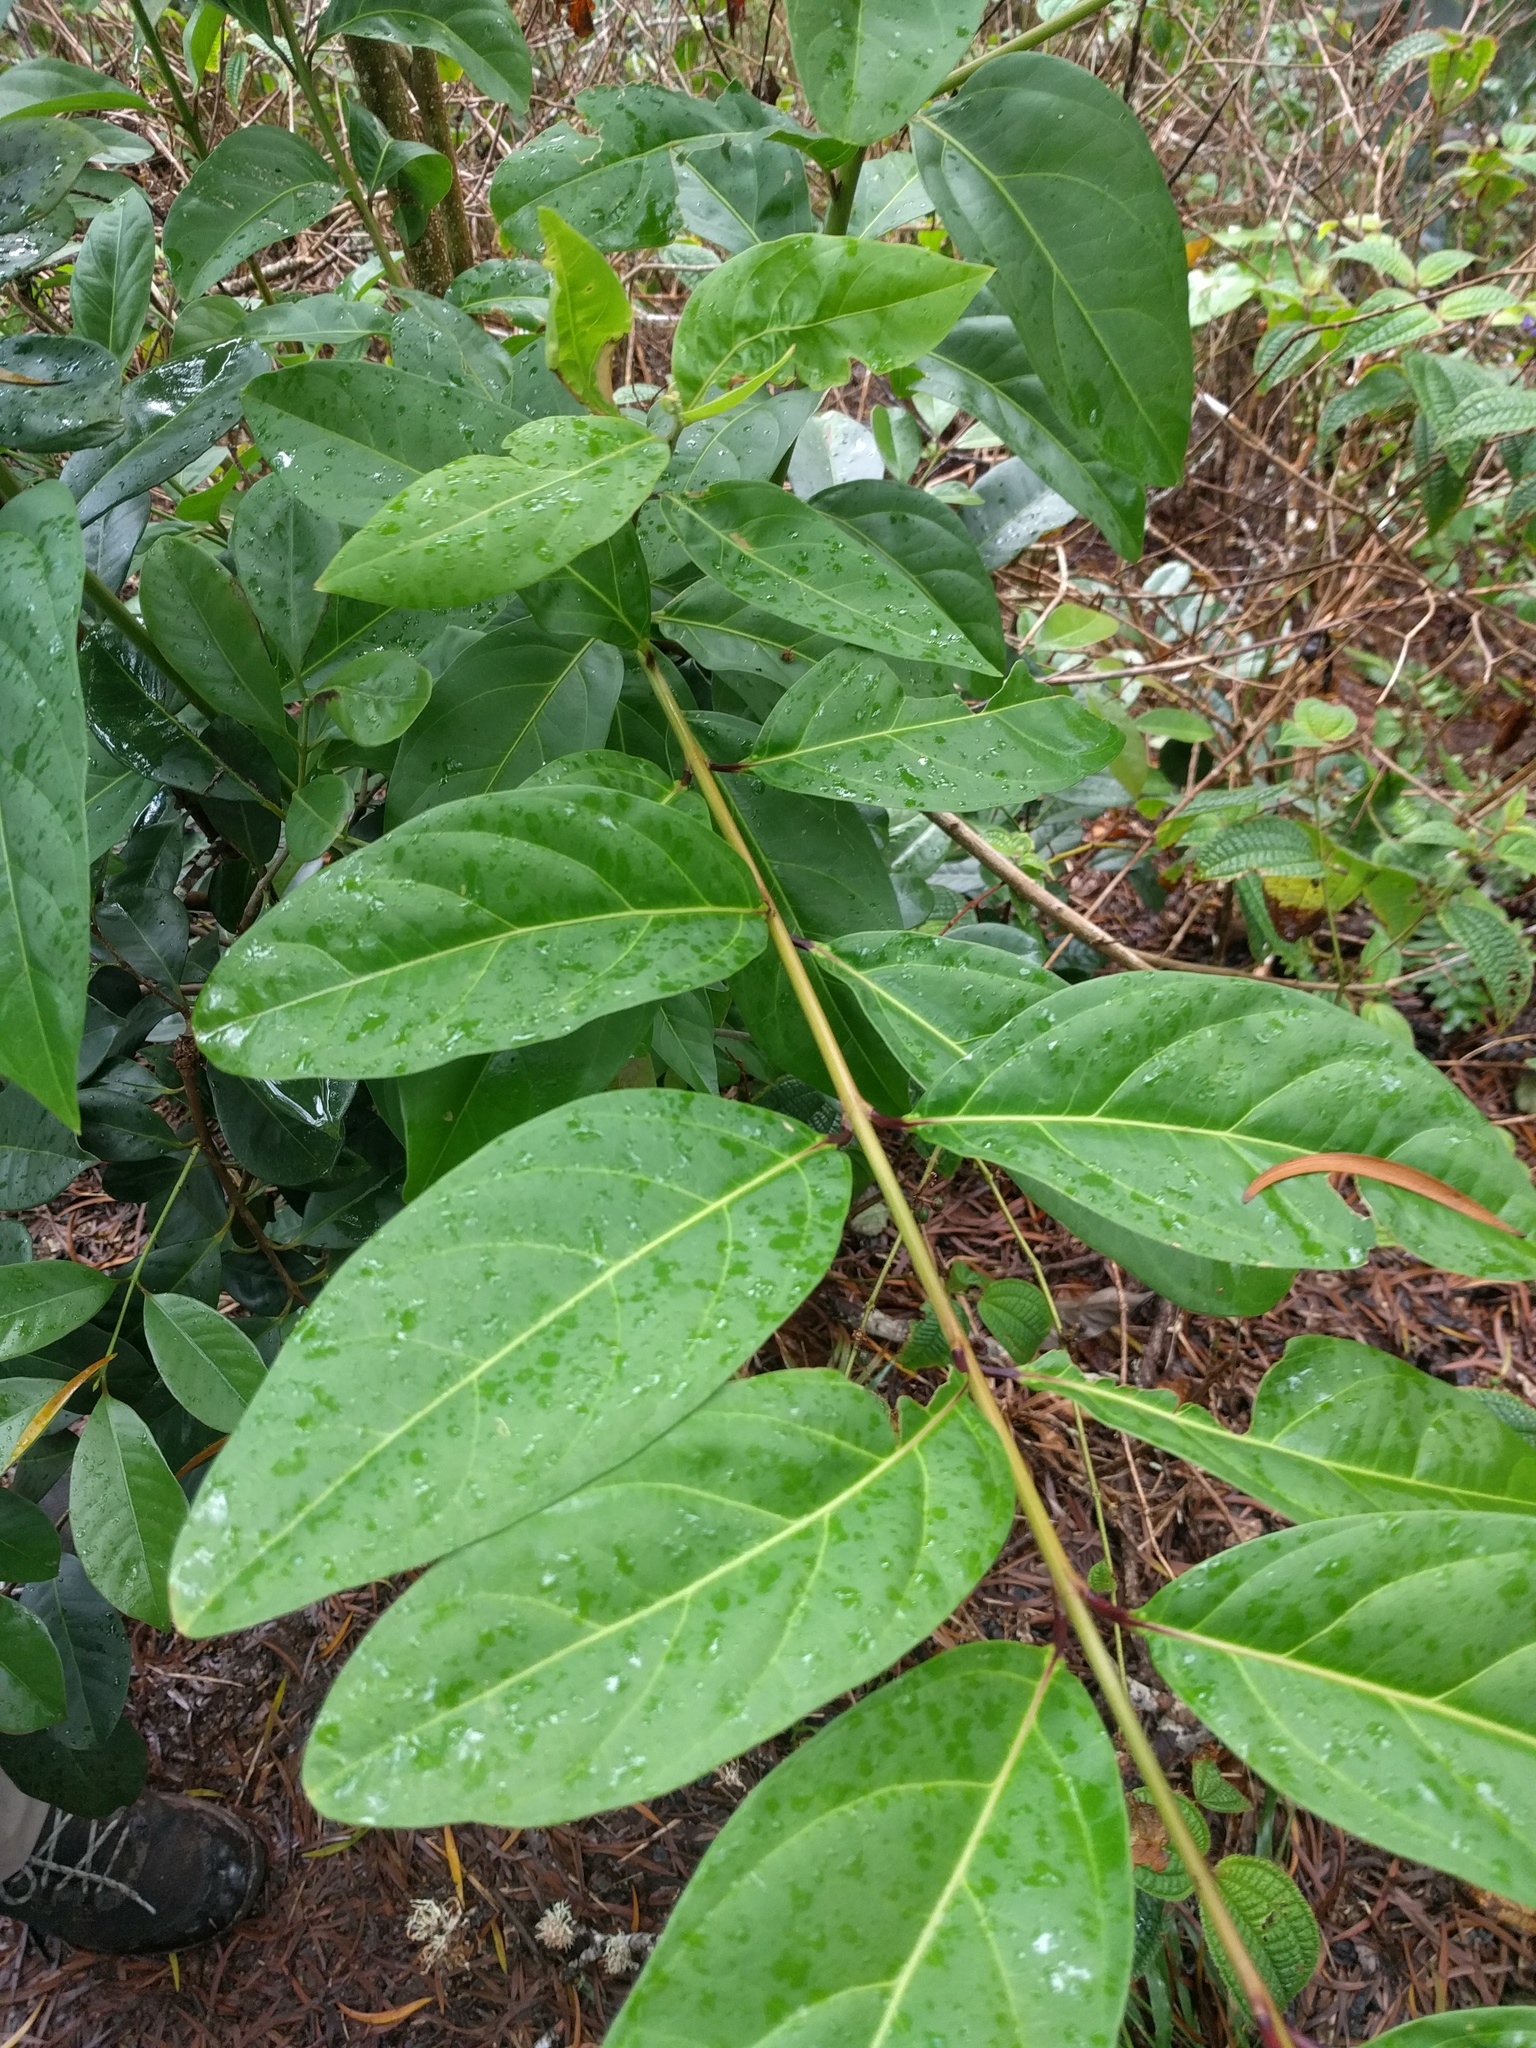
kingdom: Plantae
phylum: Tracheophyta
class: Magnoliopsida
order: Lamiales
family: Verbenaceae
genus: Citharexylum
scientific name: Citharexylum spinosum
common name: Fiddlewood
